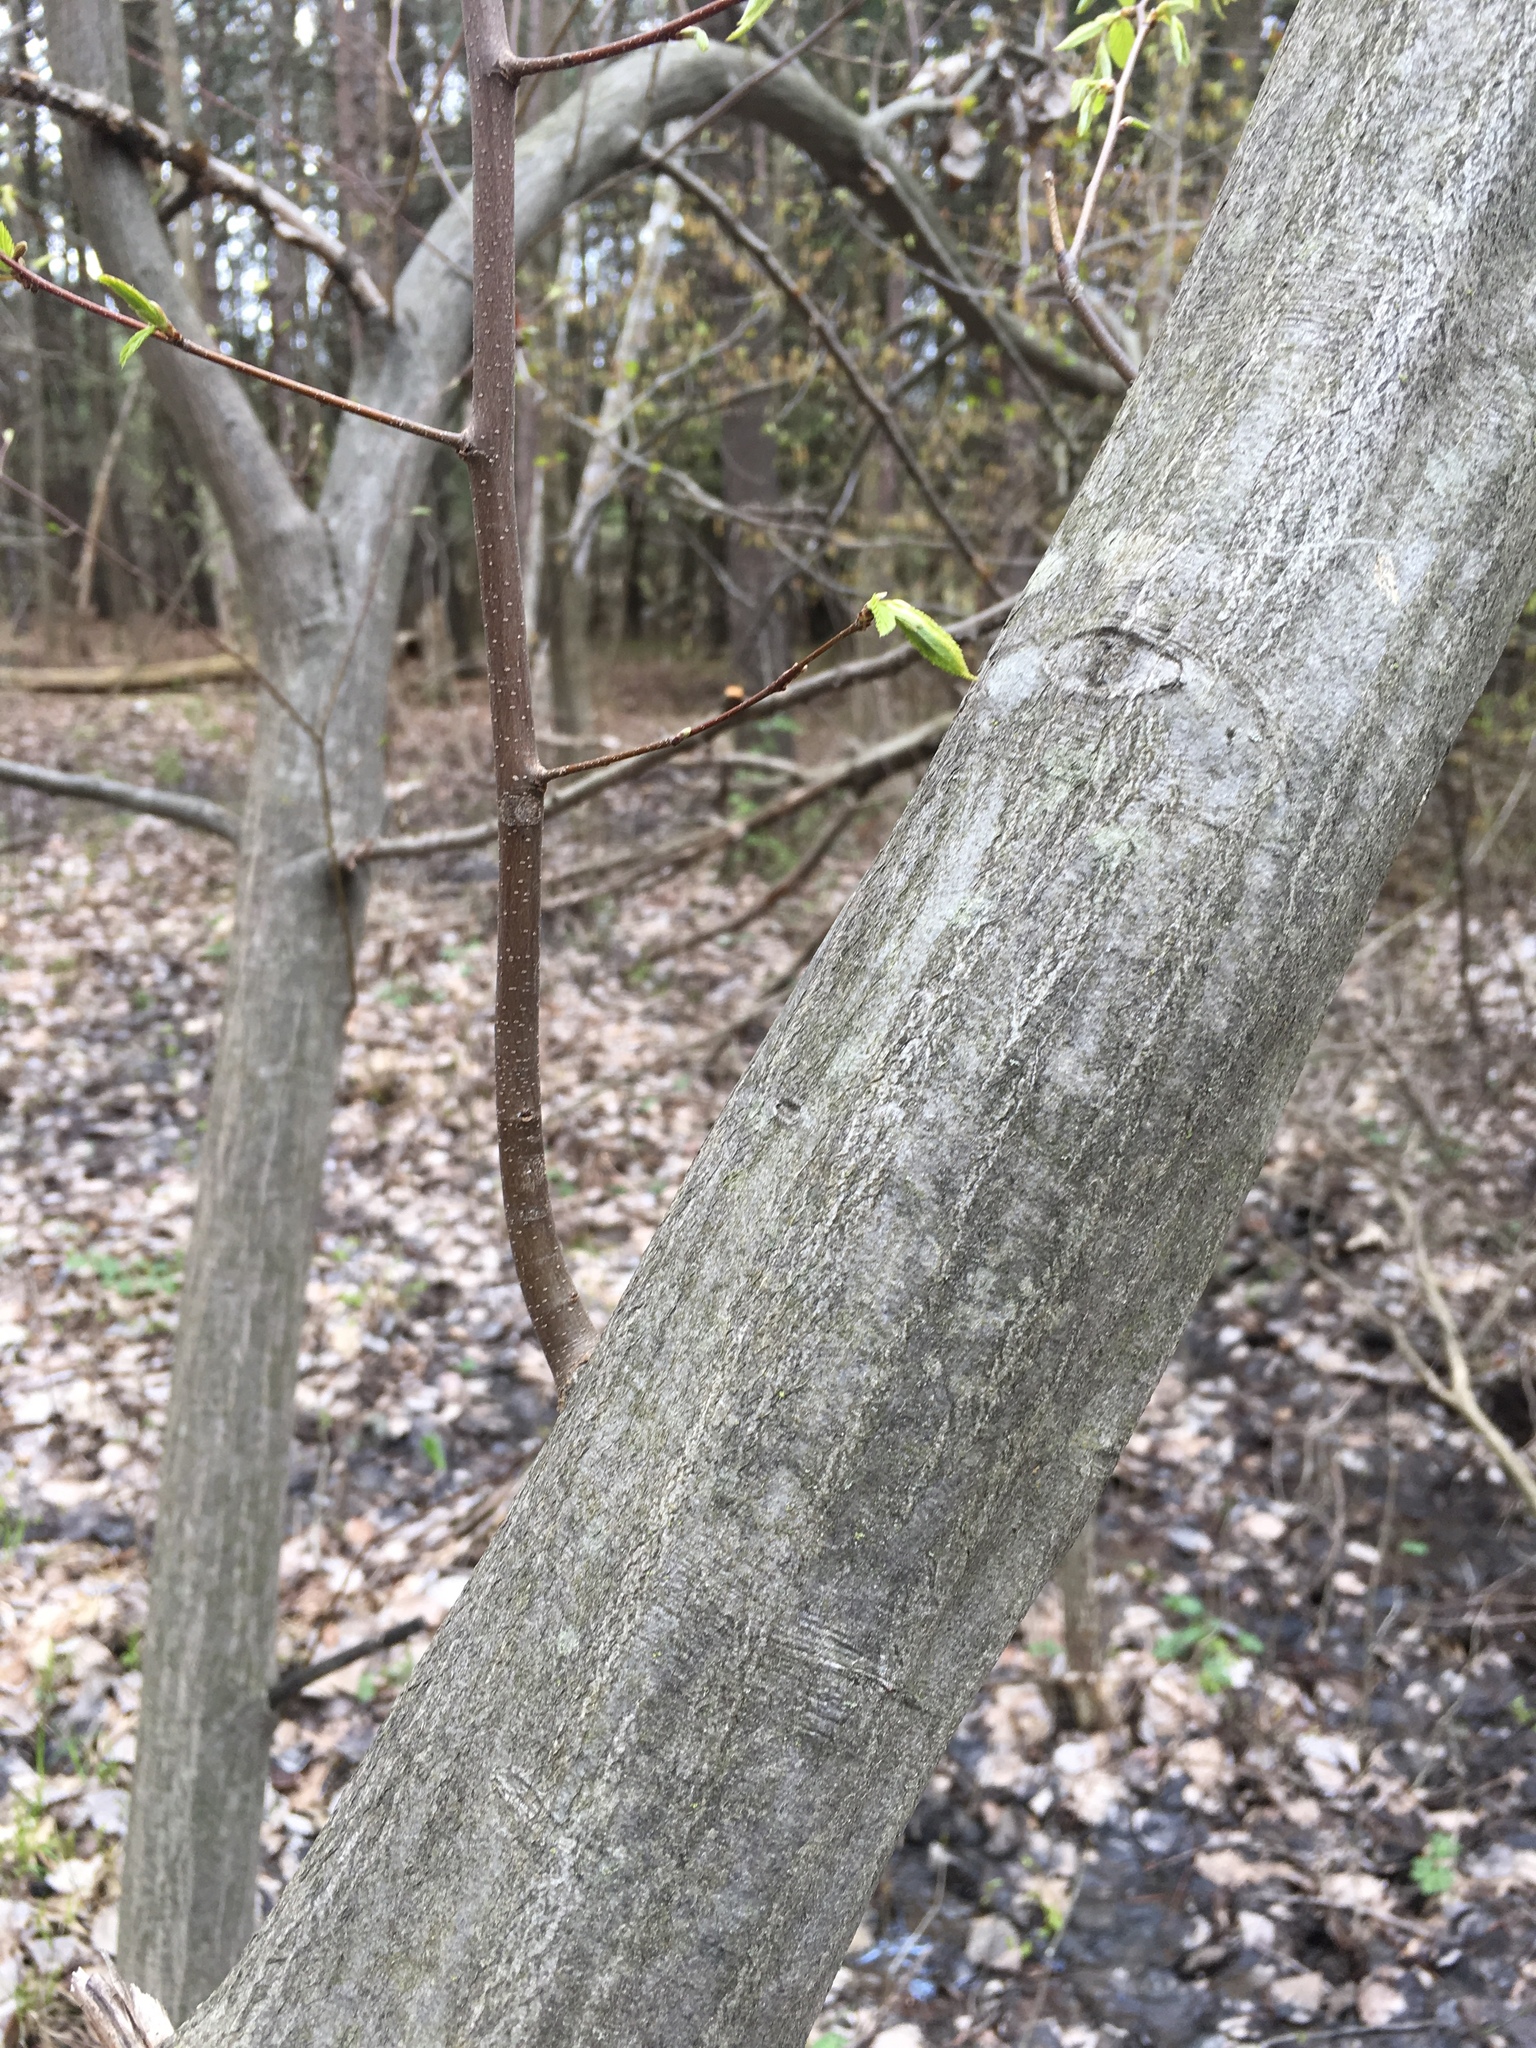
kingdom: Plantae
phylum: Tracheophyta
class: Magnoliopsida
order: Fagales
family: Betulaceae
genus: Carpinus
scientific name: Carpinus caroliniana
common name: American hornbeam
